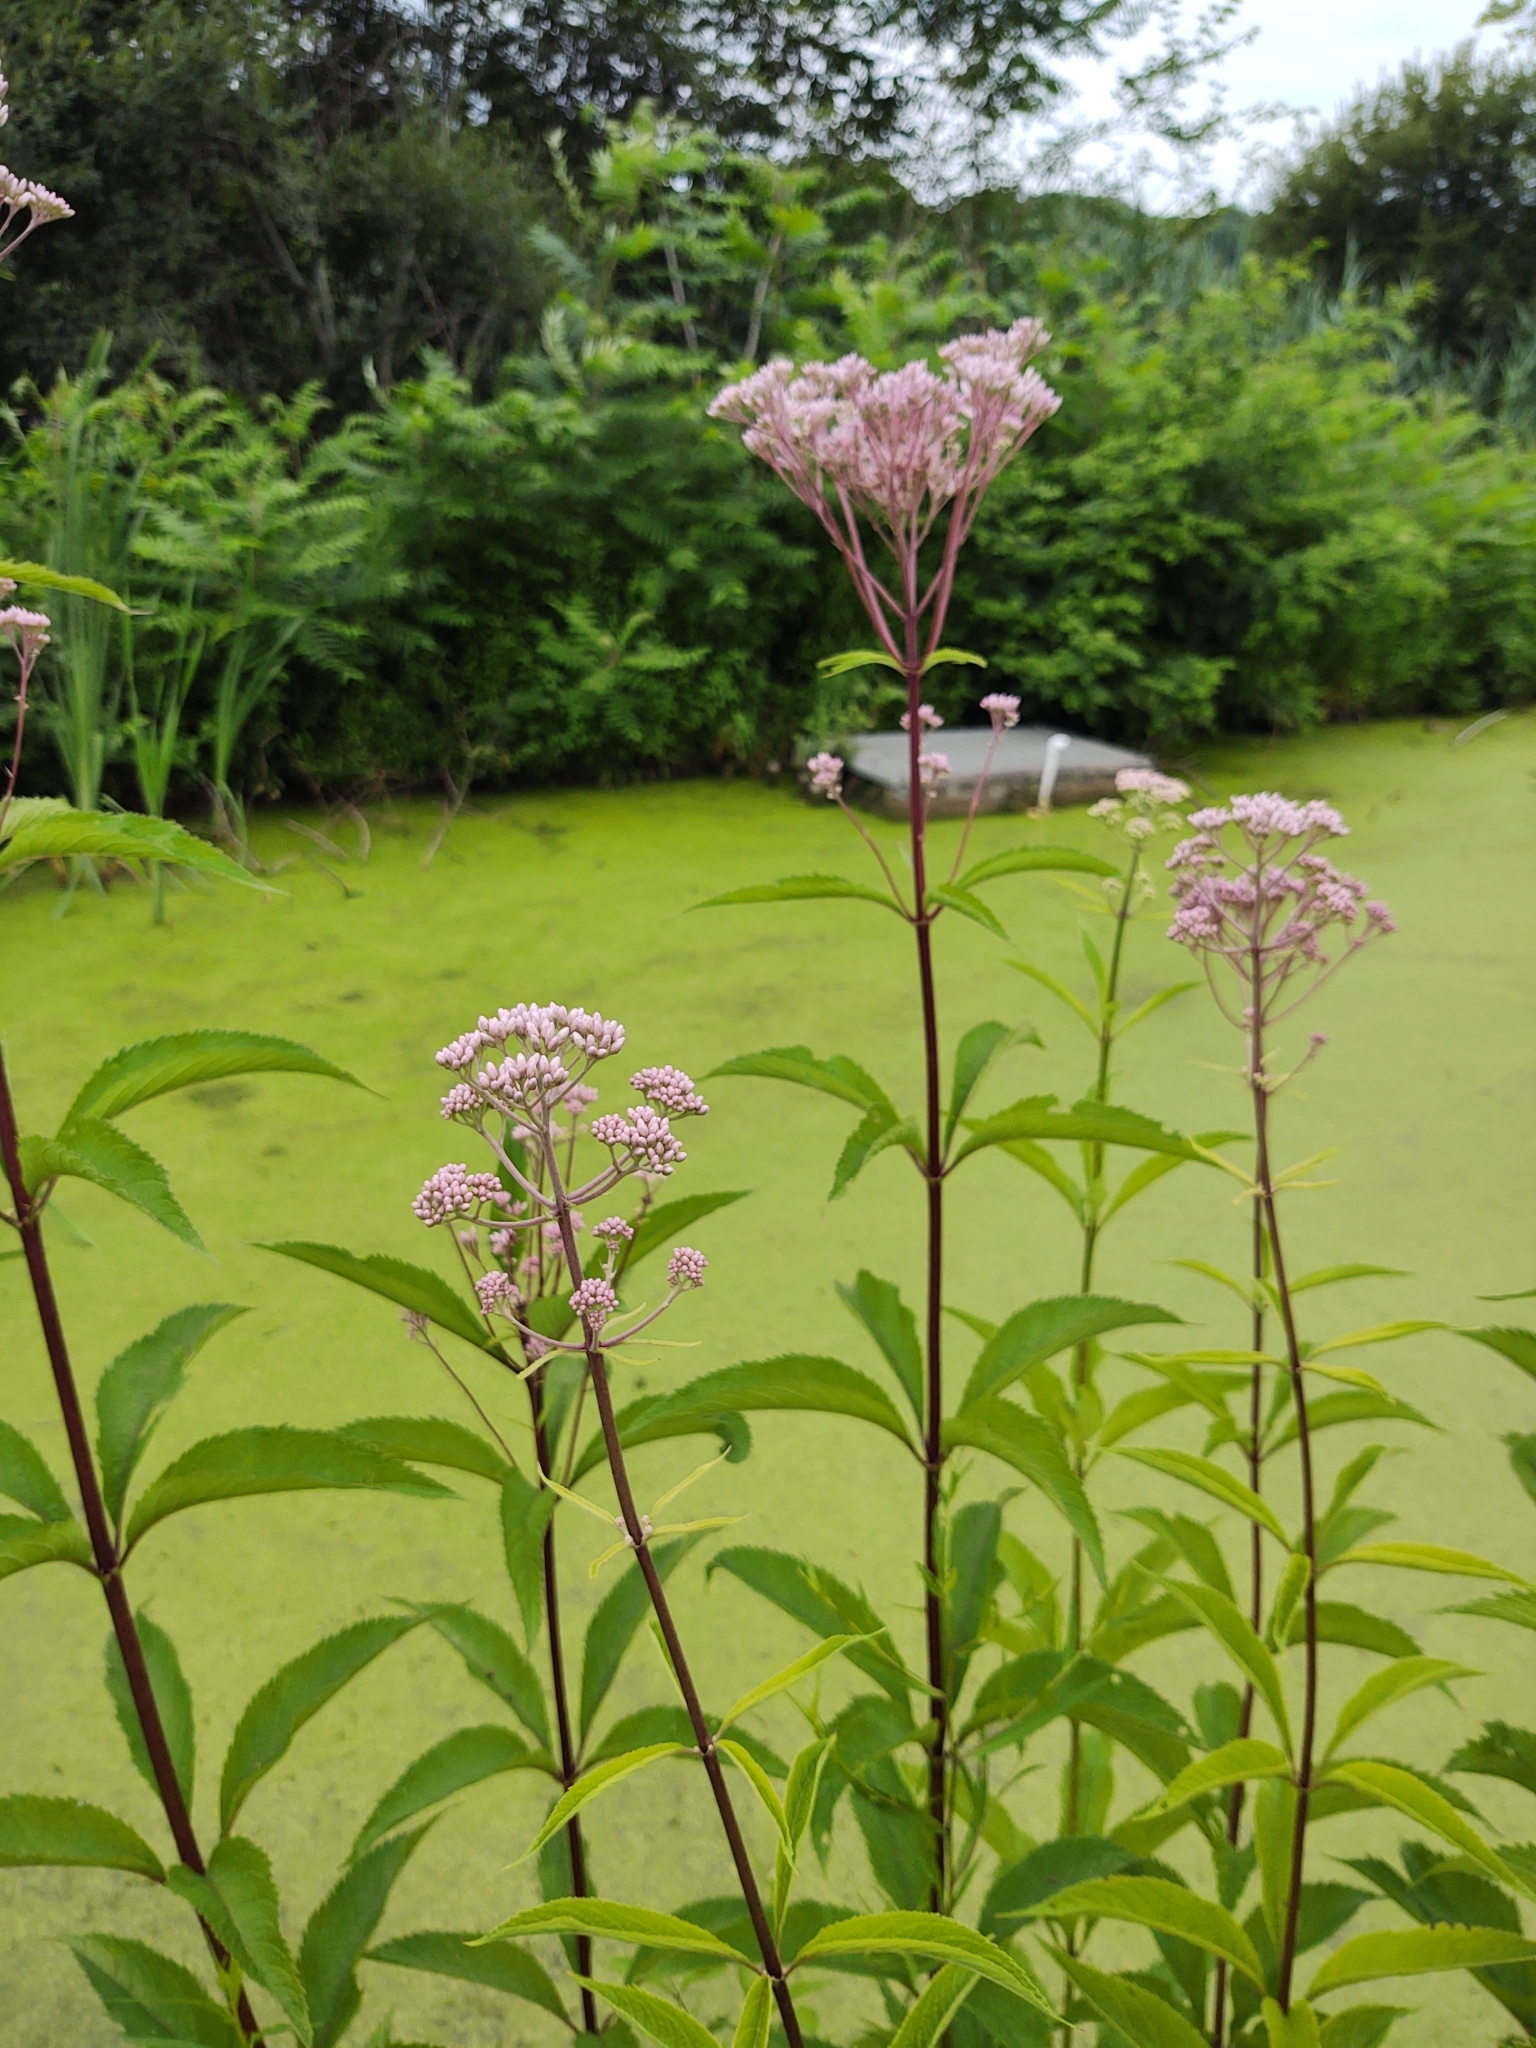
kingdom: Plantae
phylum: Tracheophyta
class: Magnoliopsida
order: Asterales
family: Asteraceae
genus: Eutrochium
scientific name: Eutrochium maculatum
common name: Spotted joe pye weed
